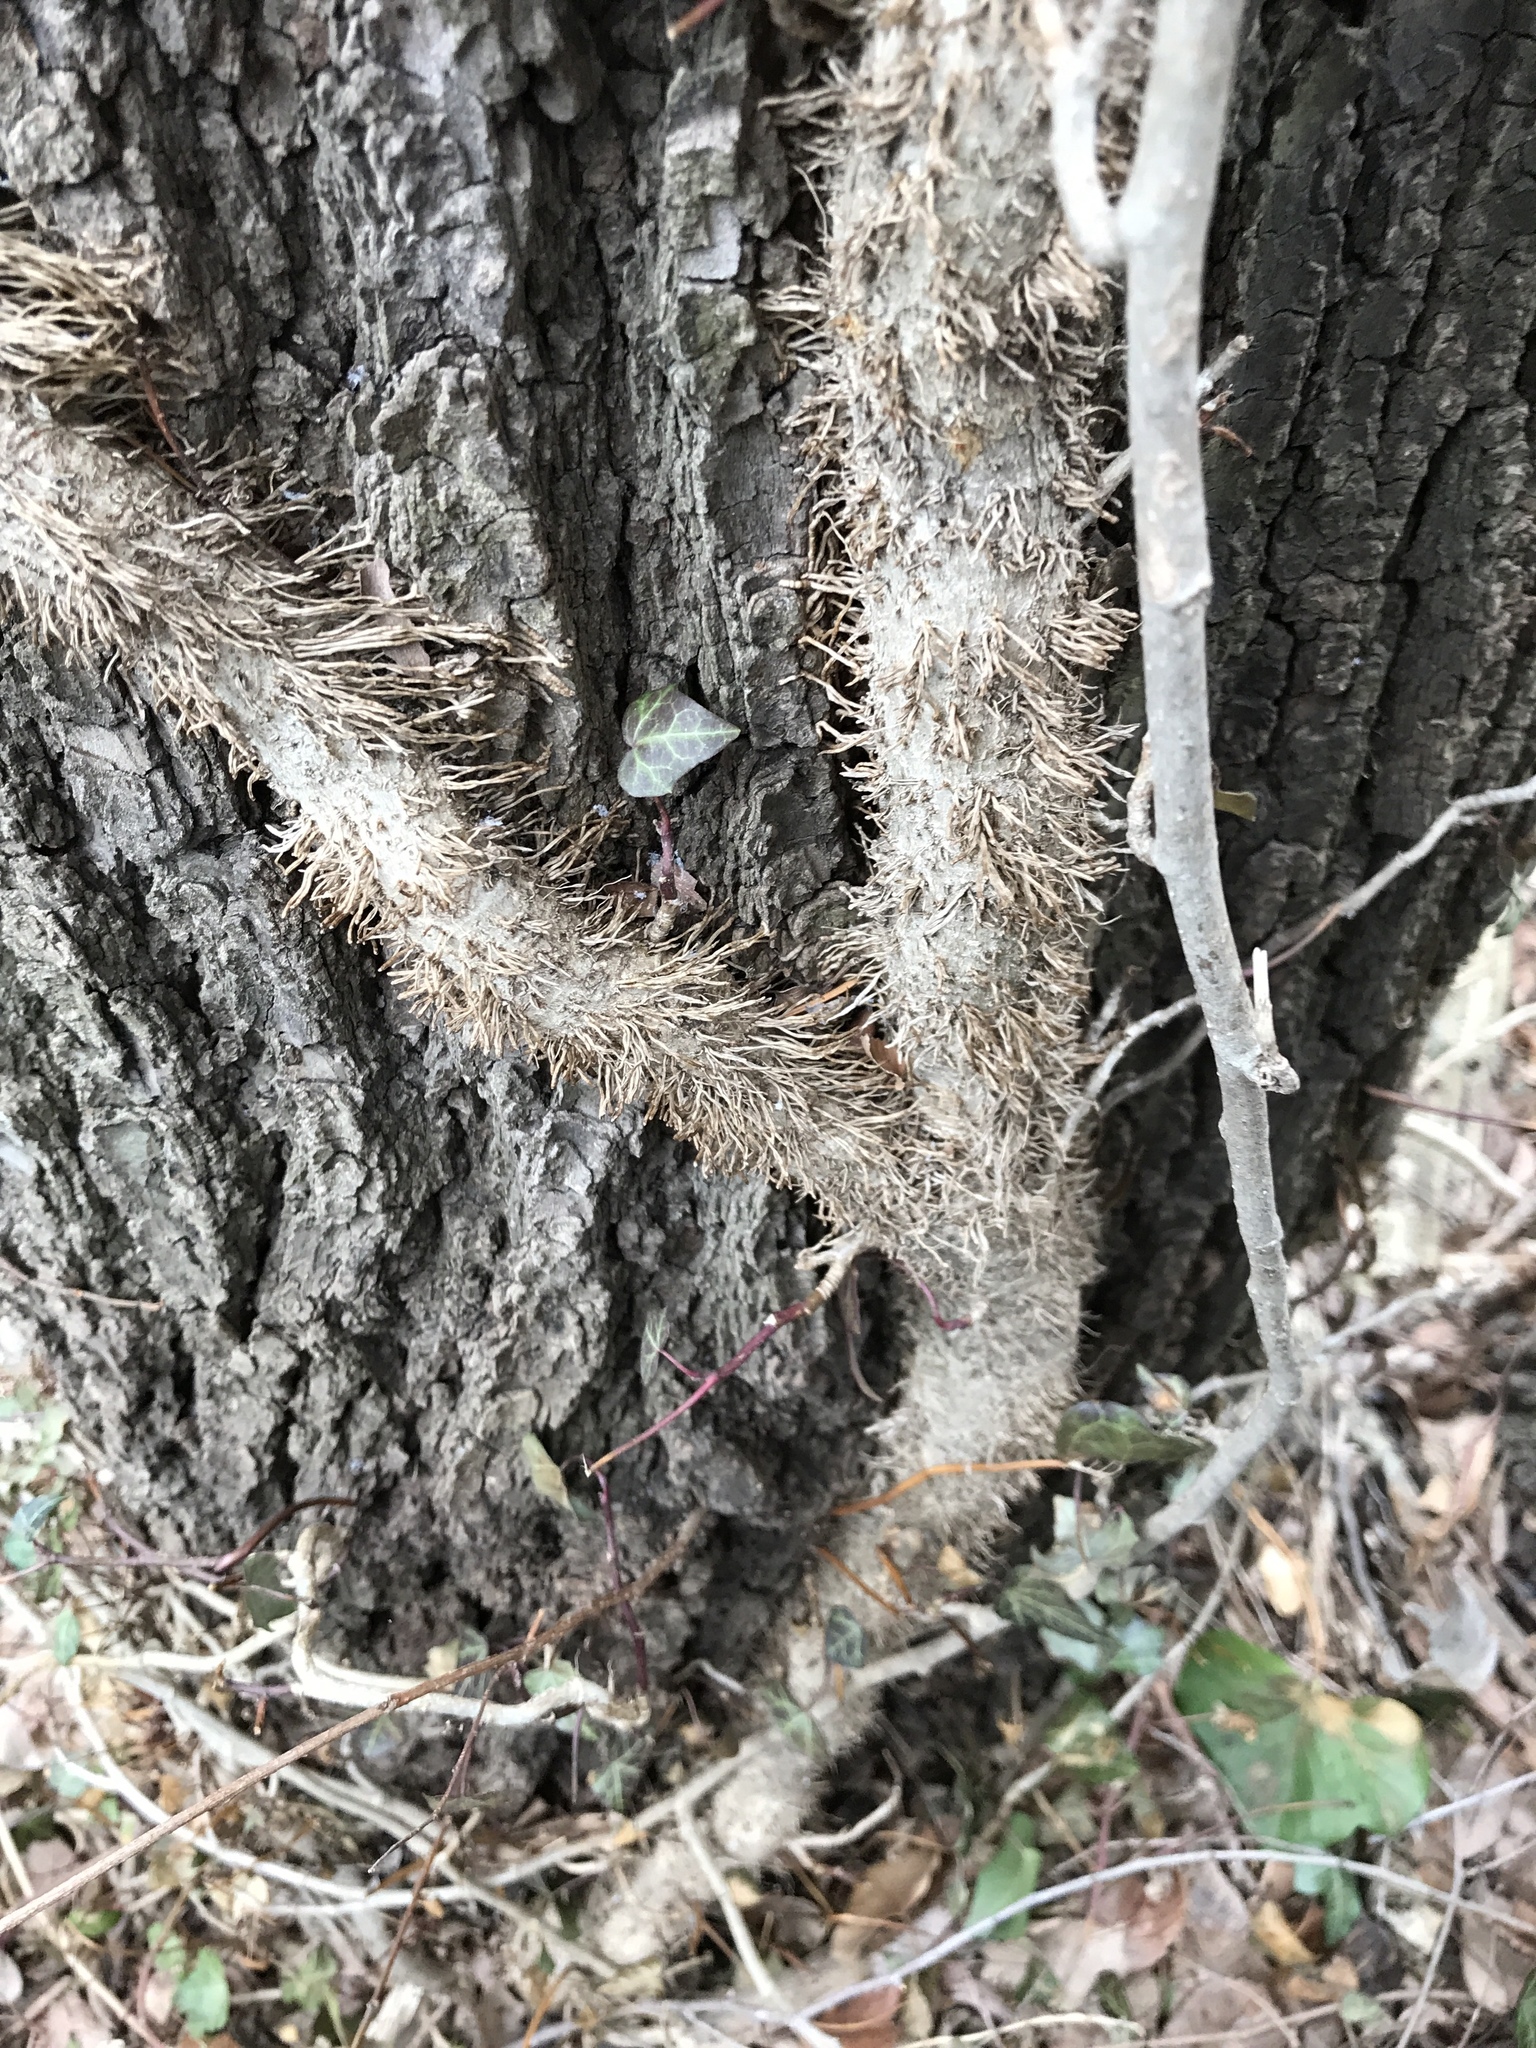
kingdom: Plantae
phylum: Tracheophyta
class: Magnoliopsida
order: Apiales
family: Araliaceae
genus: Hedera
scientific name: Hedera helix
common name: Ivy
